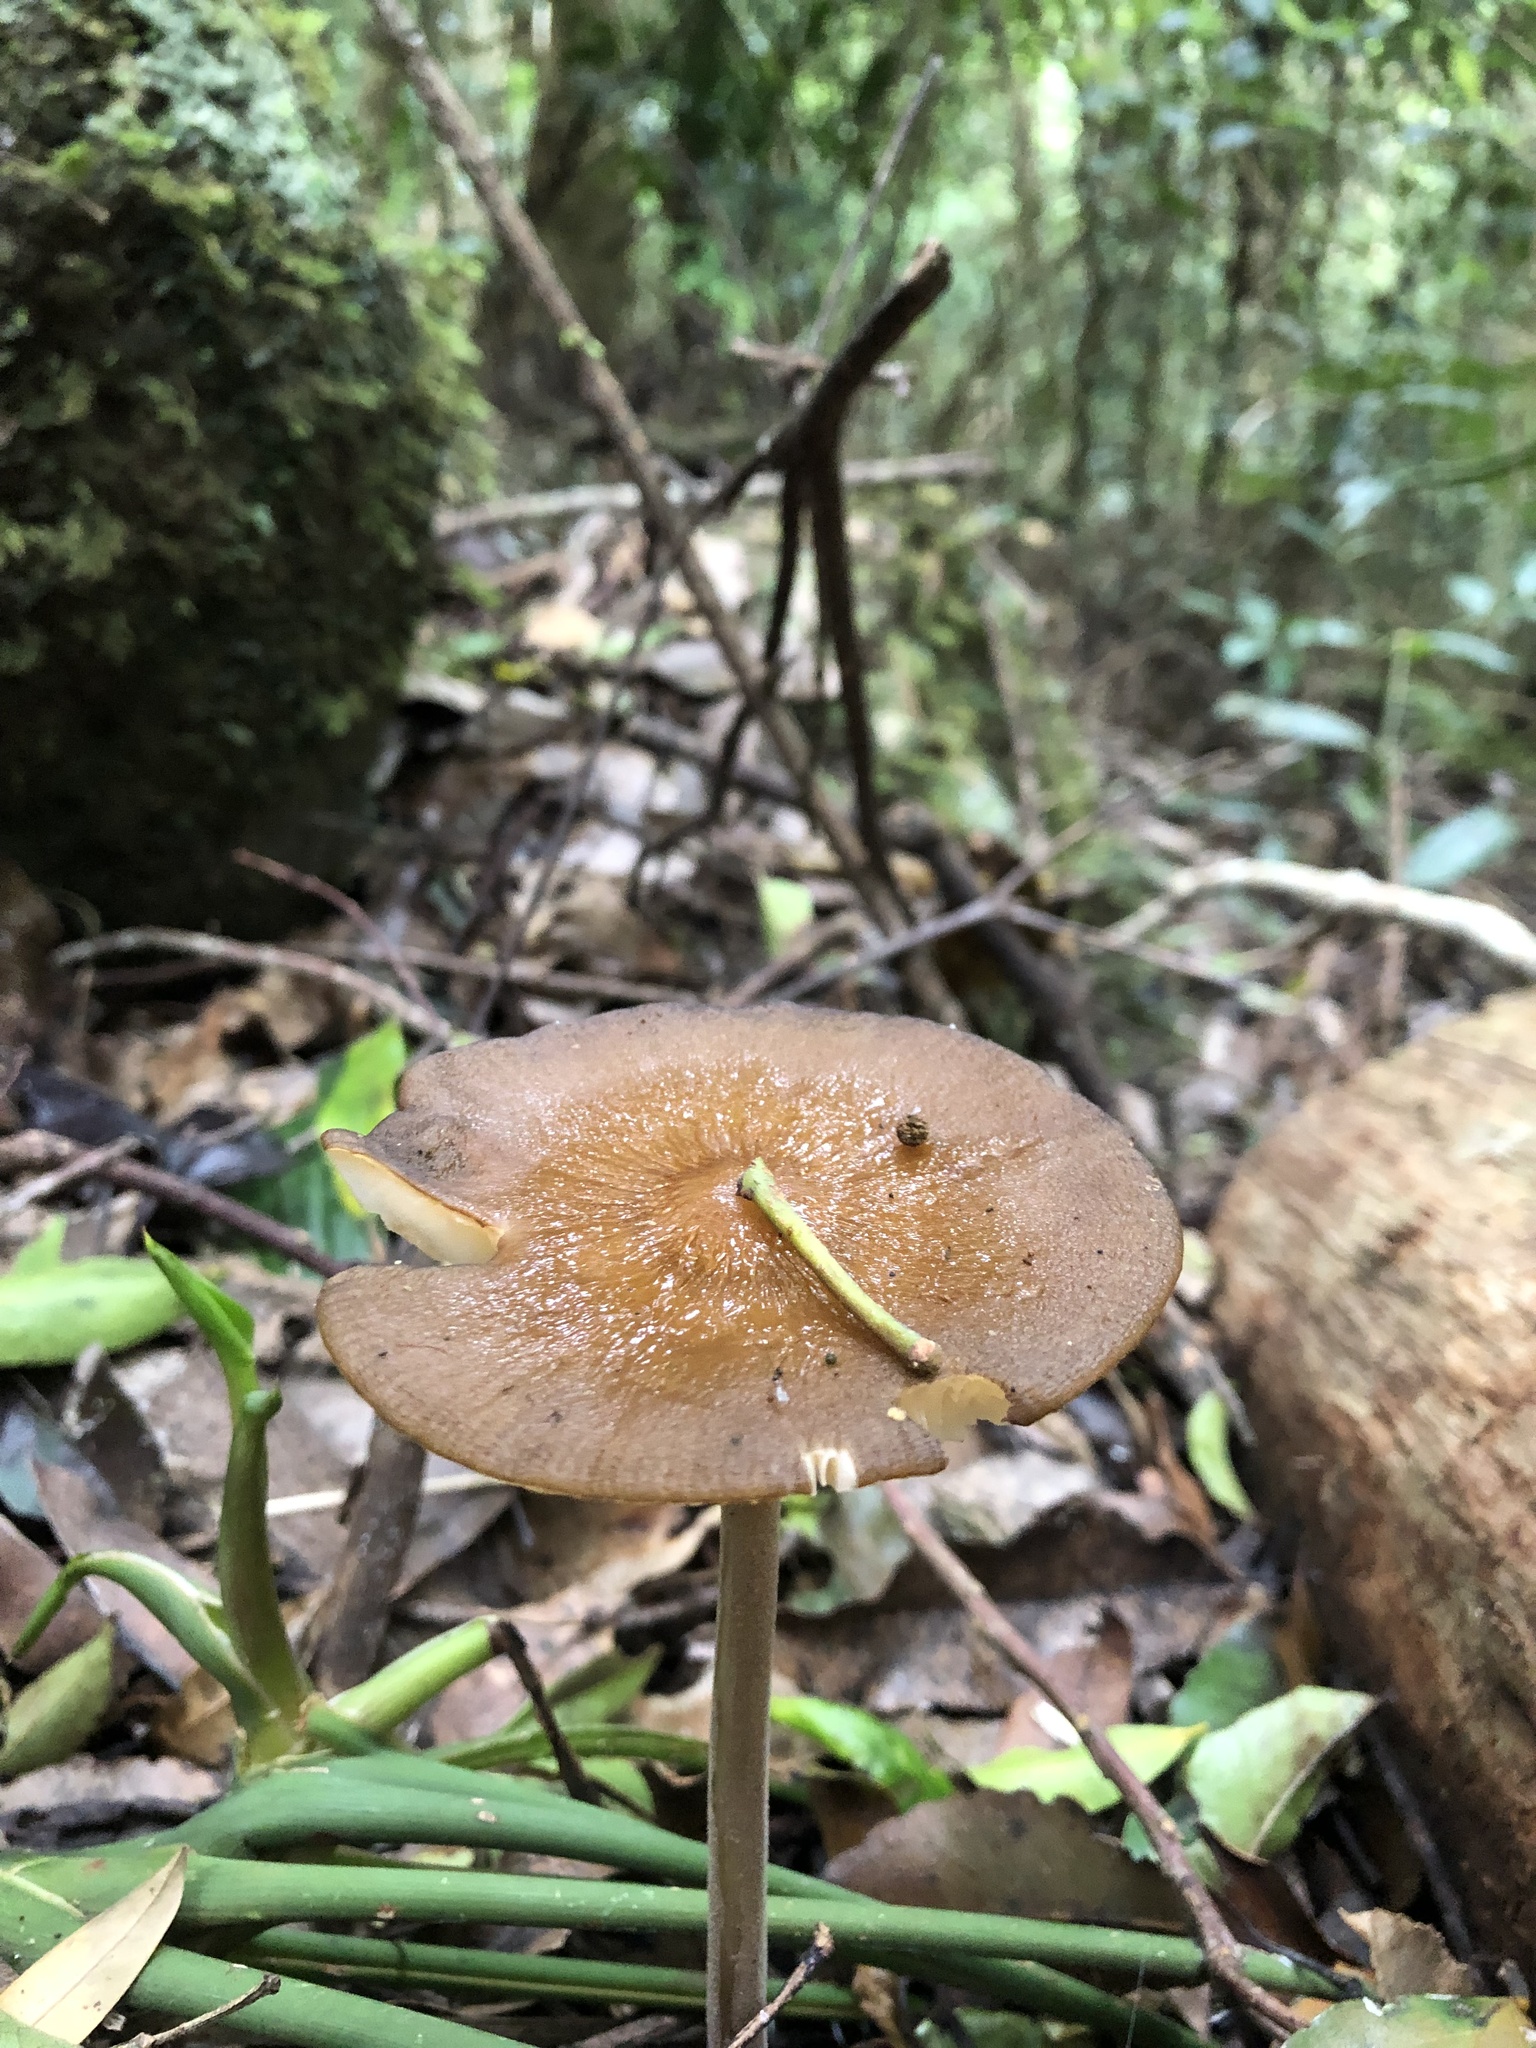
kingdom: Fungi
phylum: Basidiomycota
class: Agaricomycetes
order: Agaricales
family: Physalacriaceae
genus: Hymenopellis
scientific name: Hymenopellis gigaspora
